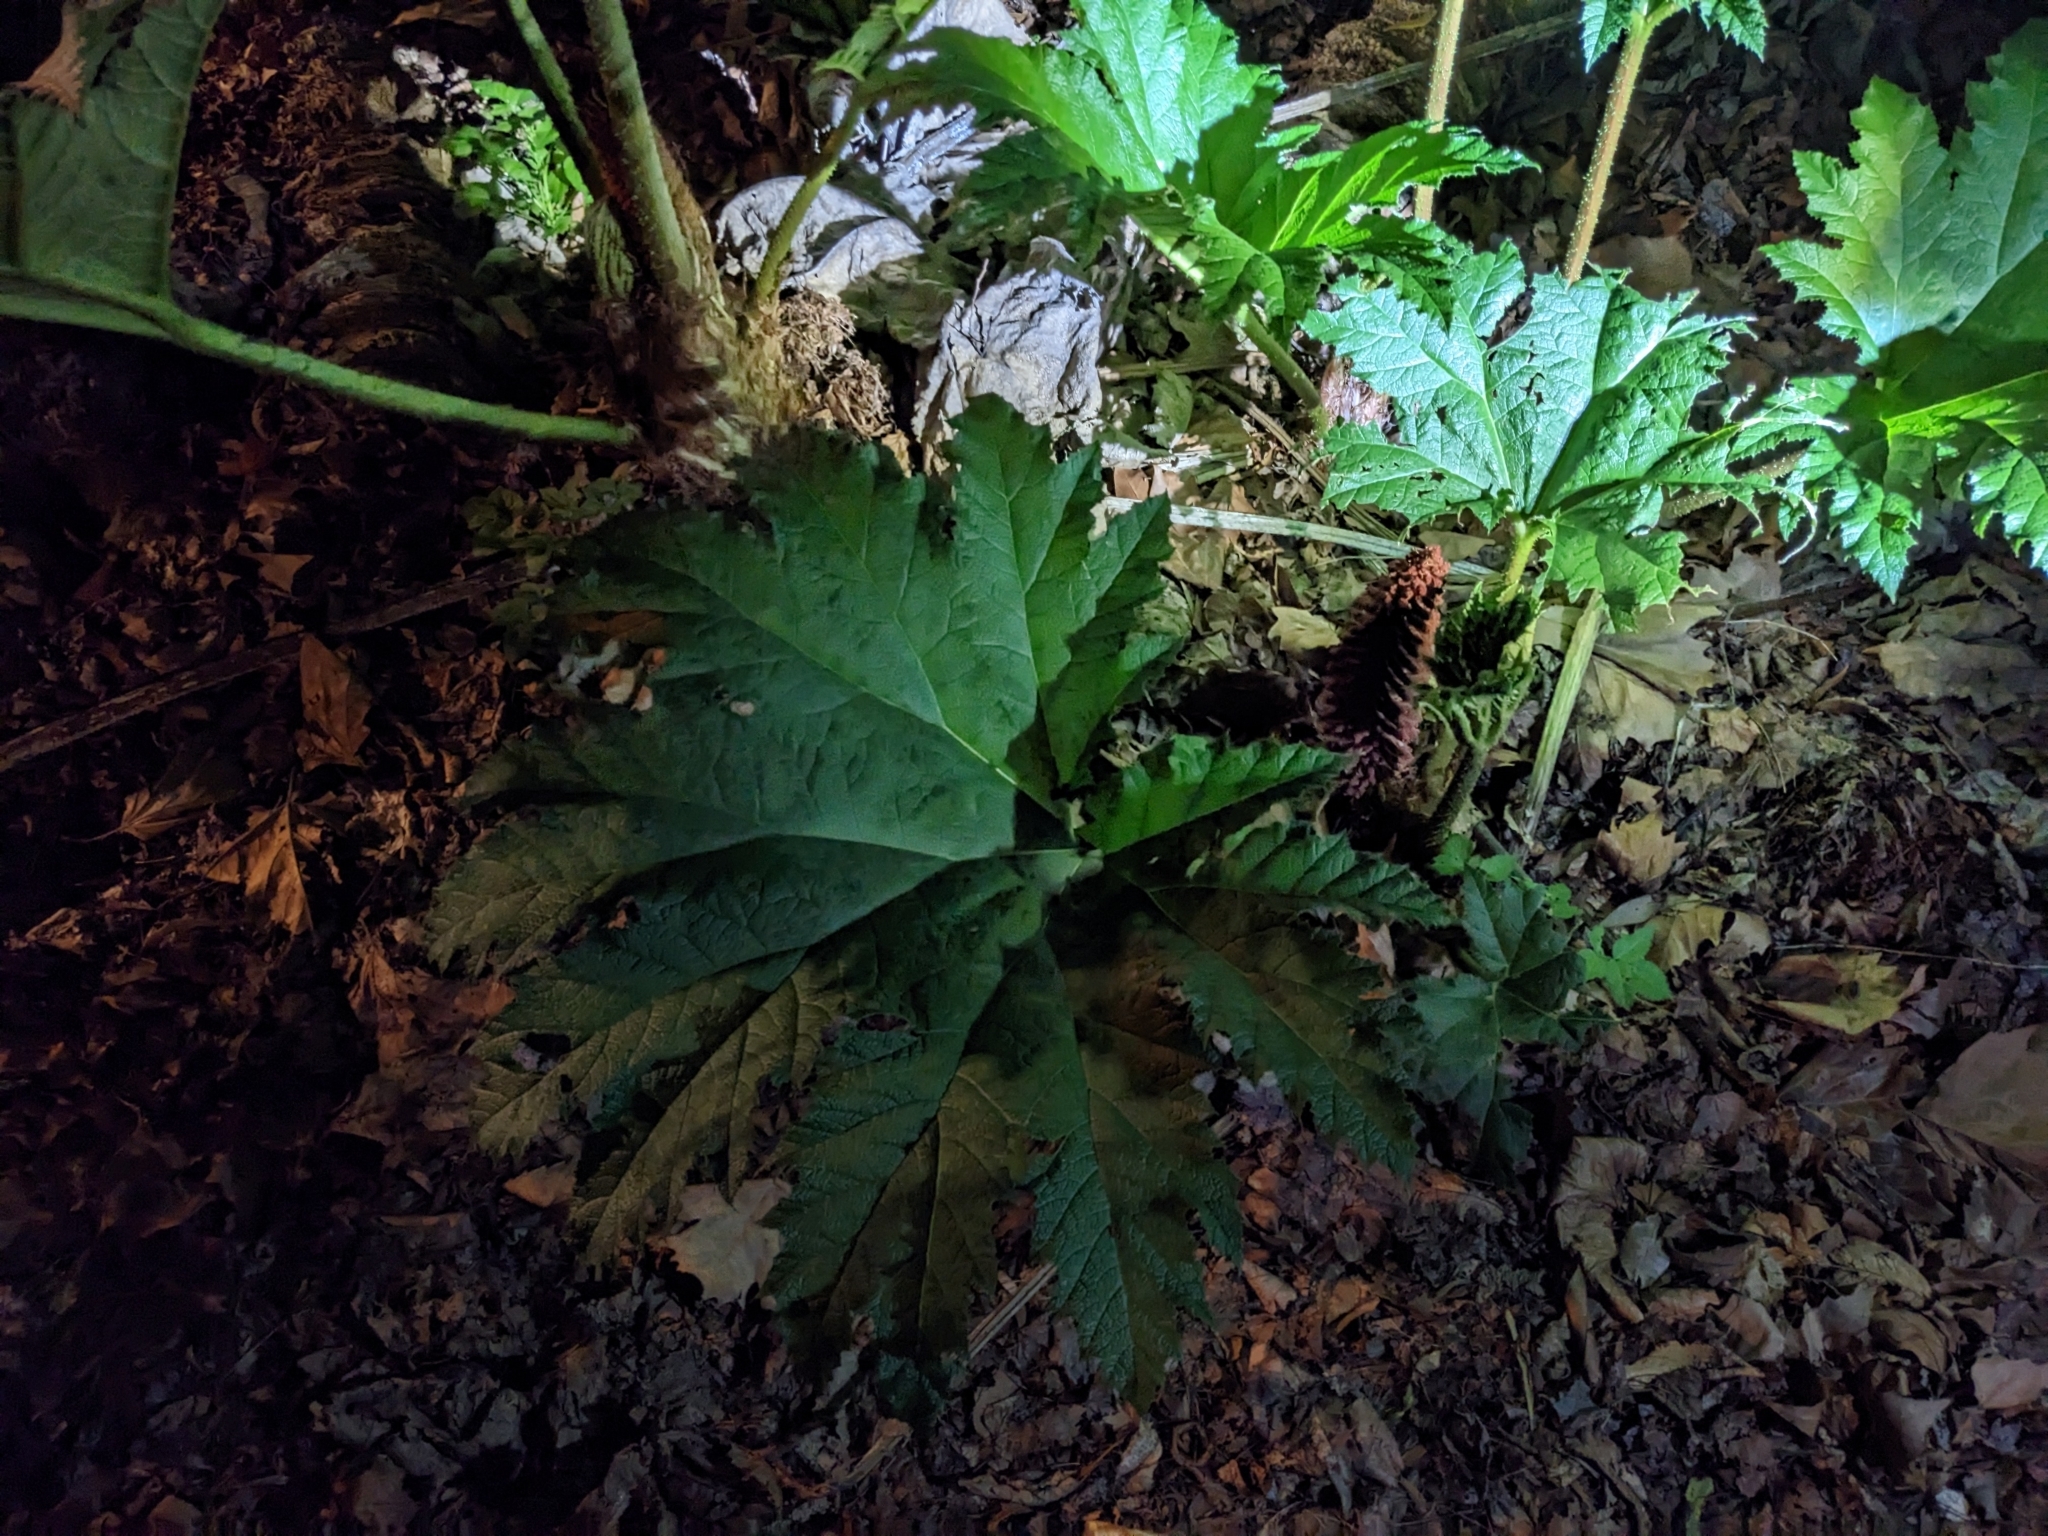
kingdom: Plantae
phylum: Tracheophyta
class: Magnoliopsida
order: Gunnerales
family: Gunneraceae
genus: Gunnera
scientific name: Gunnera tinctoria
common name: Giant-rhubarb
